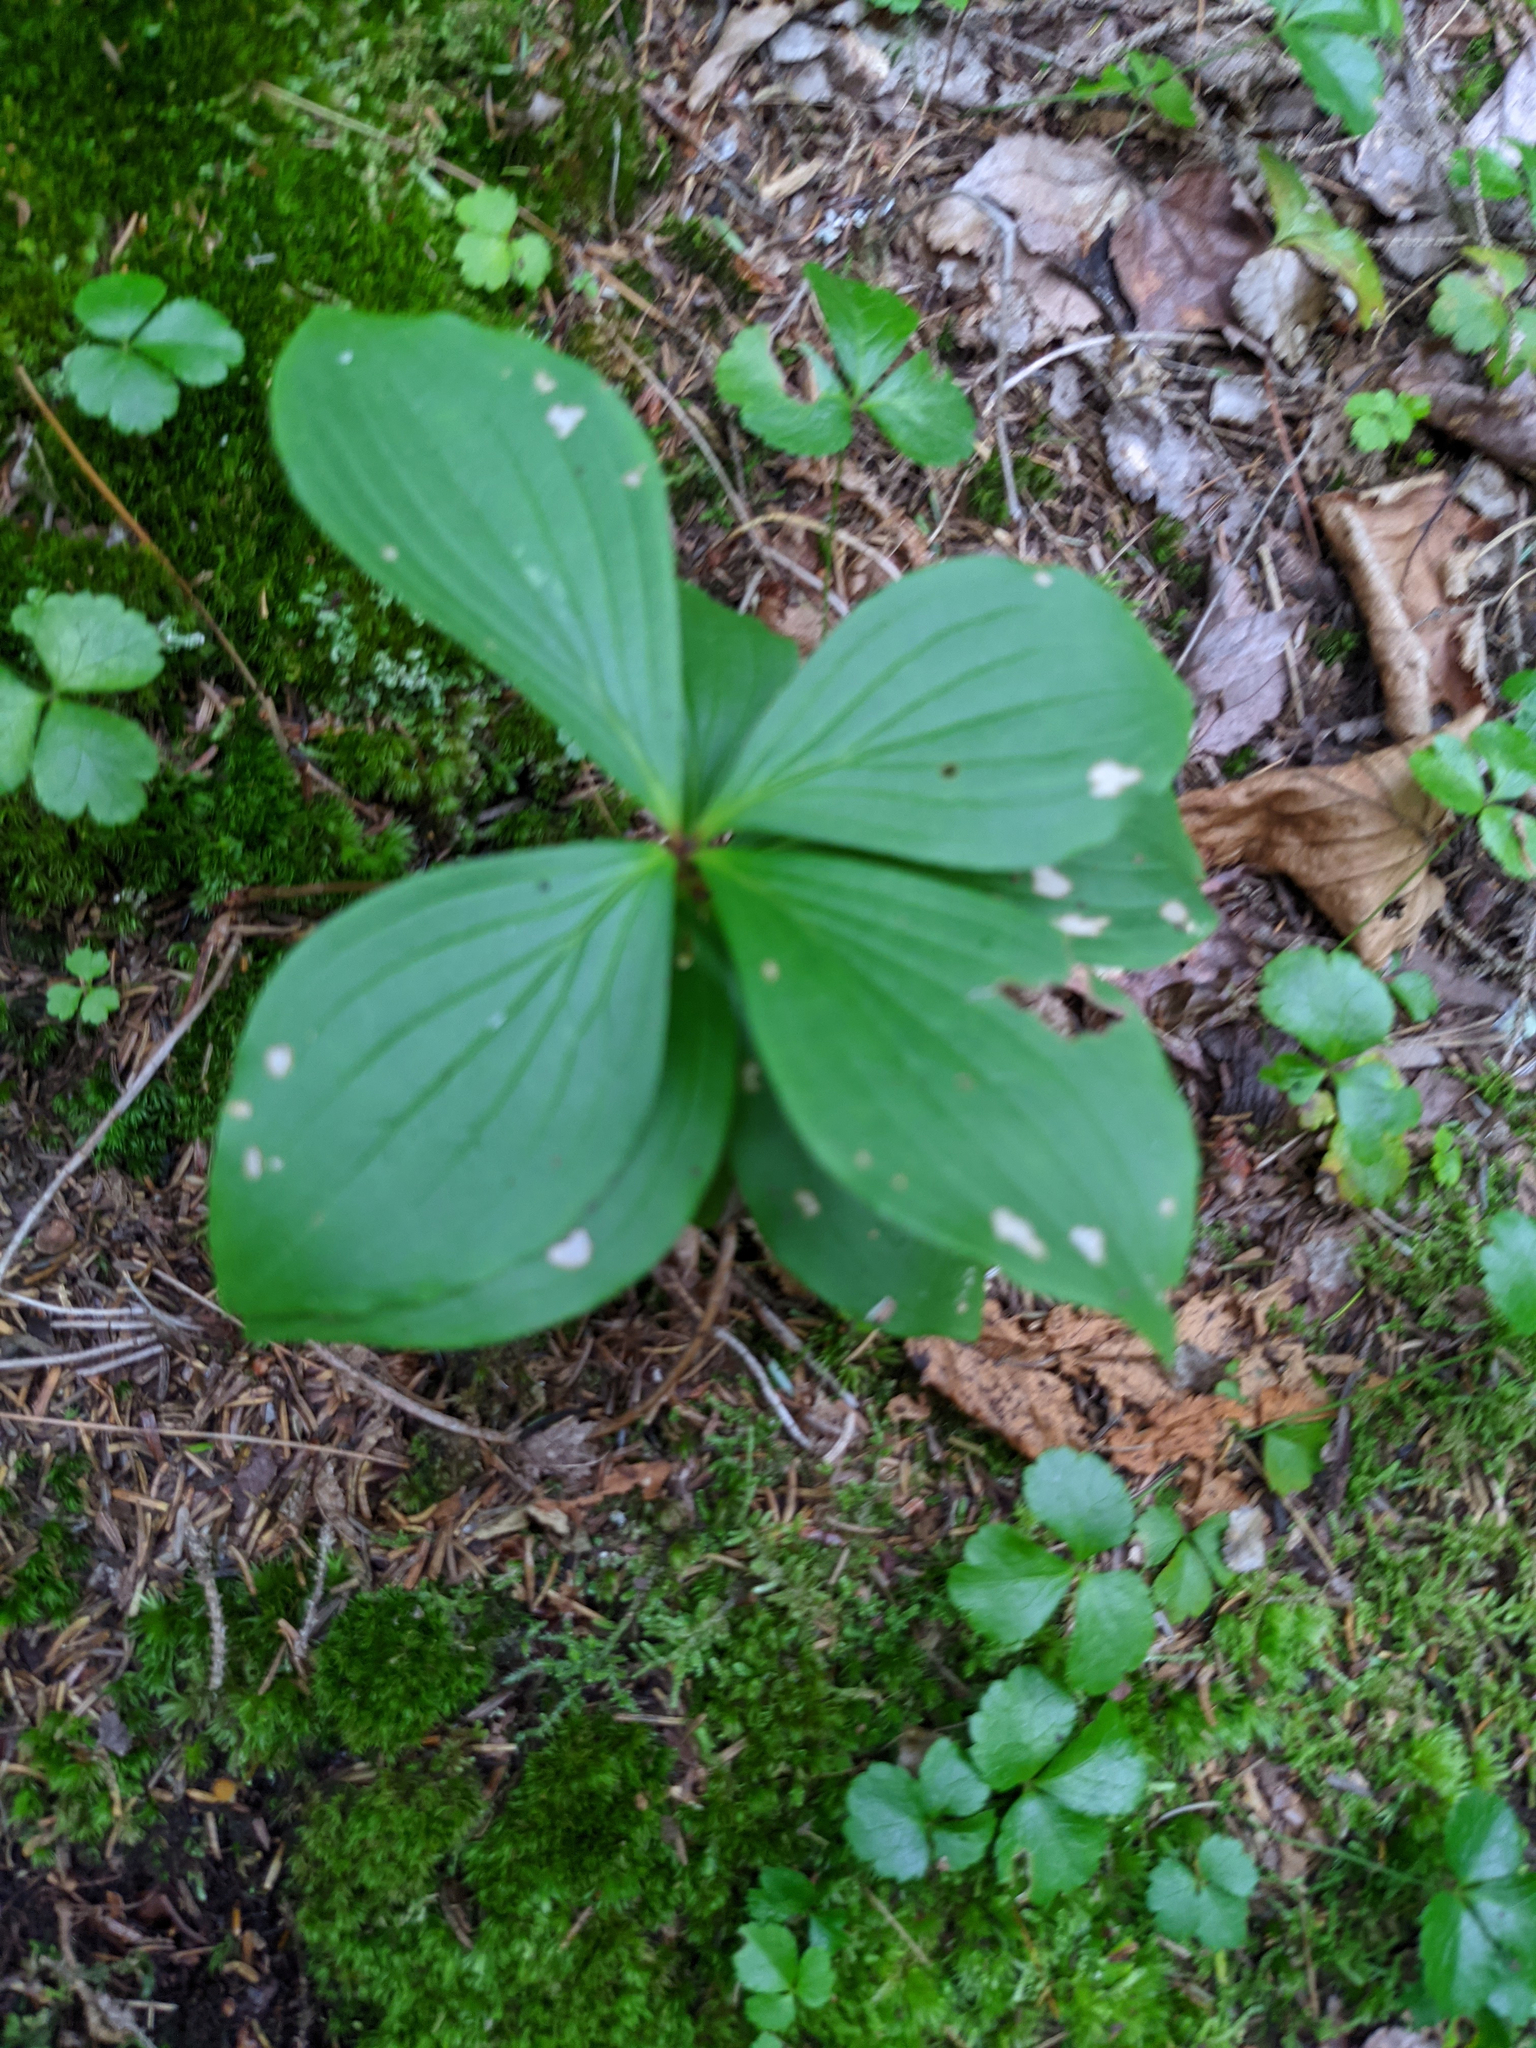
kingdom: Plantae
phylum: Tracheophyta
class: Magnoliopsida
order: Cornales
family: Cornaceae
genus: Cornus
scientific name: Cornus canadensis
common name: Creeping dogwood
